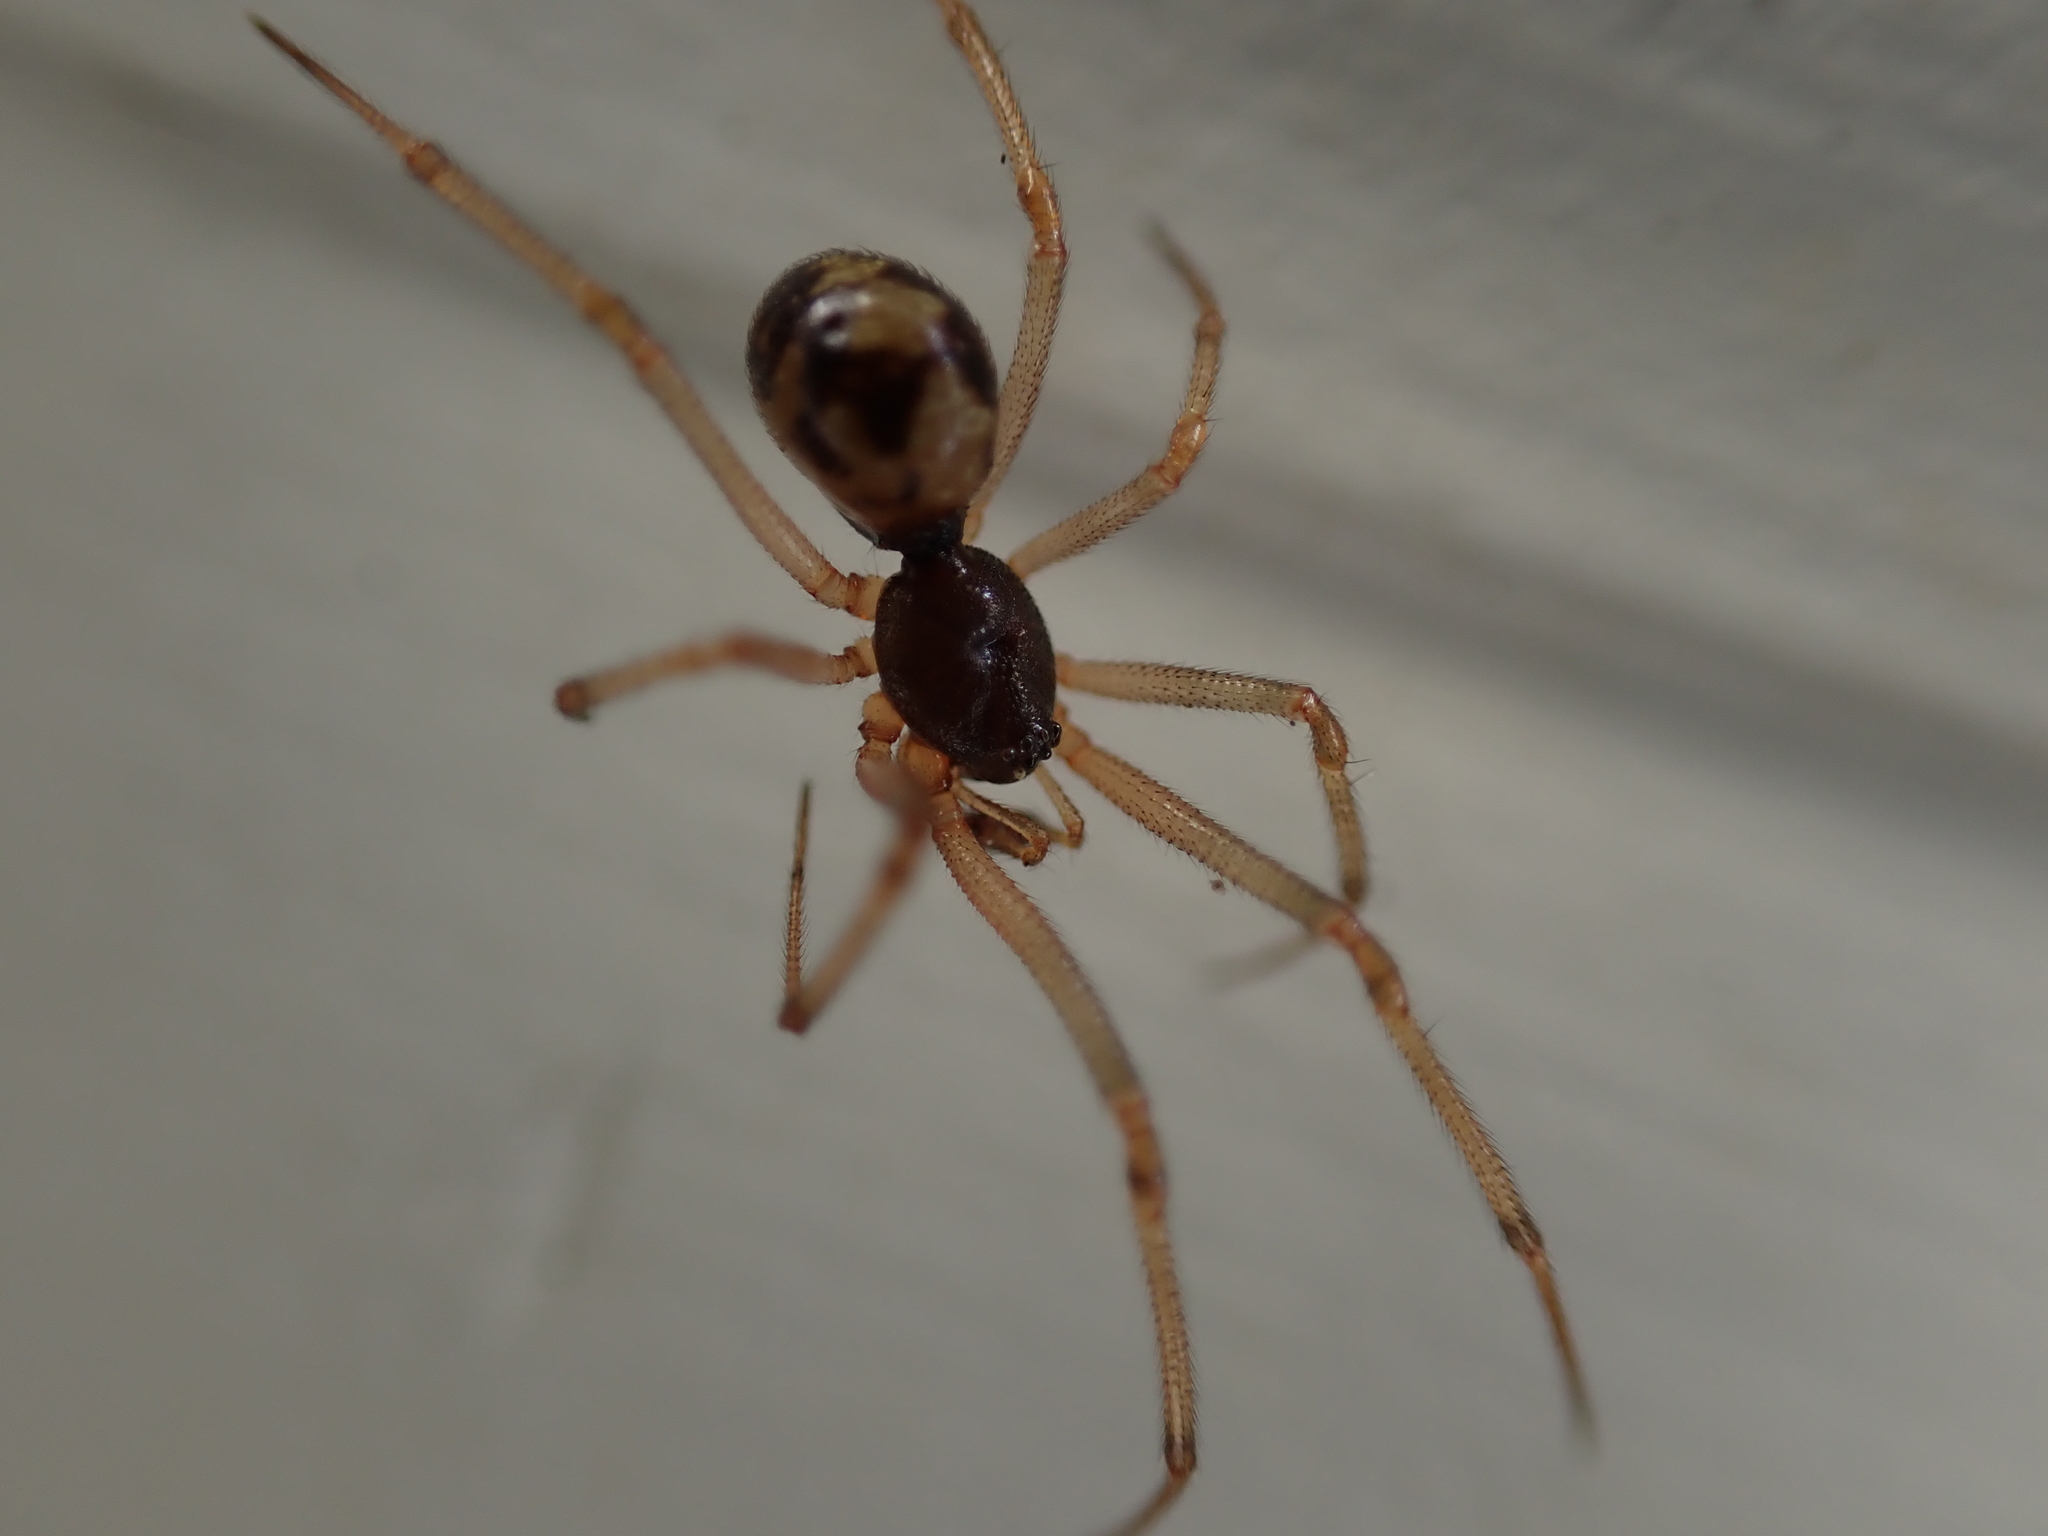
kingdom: Animalia
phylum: Arthropoda
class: Arachnida
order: Araneae
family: Theridiidae
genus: Steatoda
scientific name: Steatoda triangulosa
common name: Triangulate bud spider
